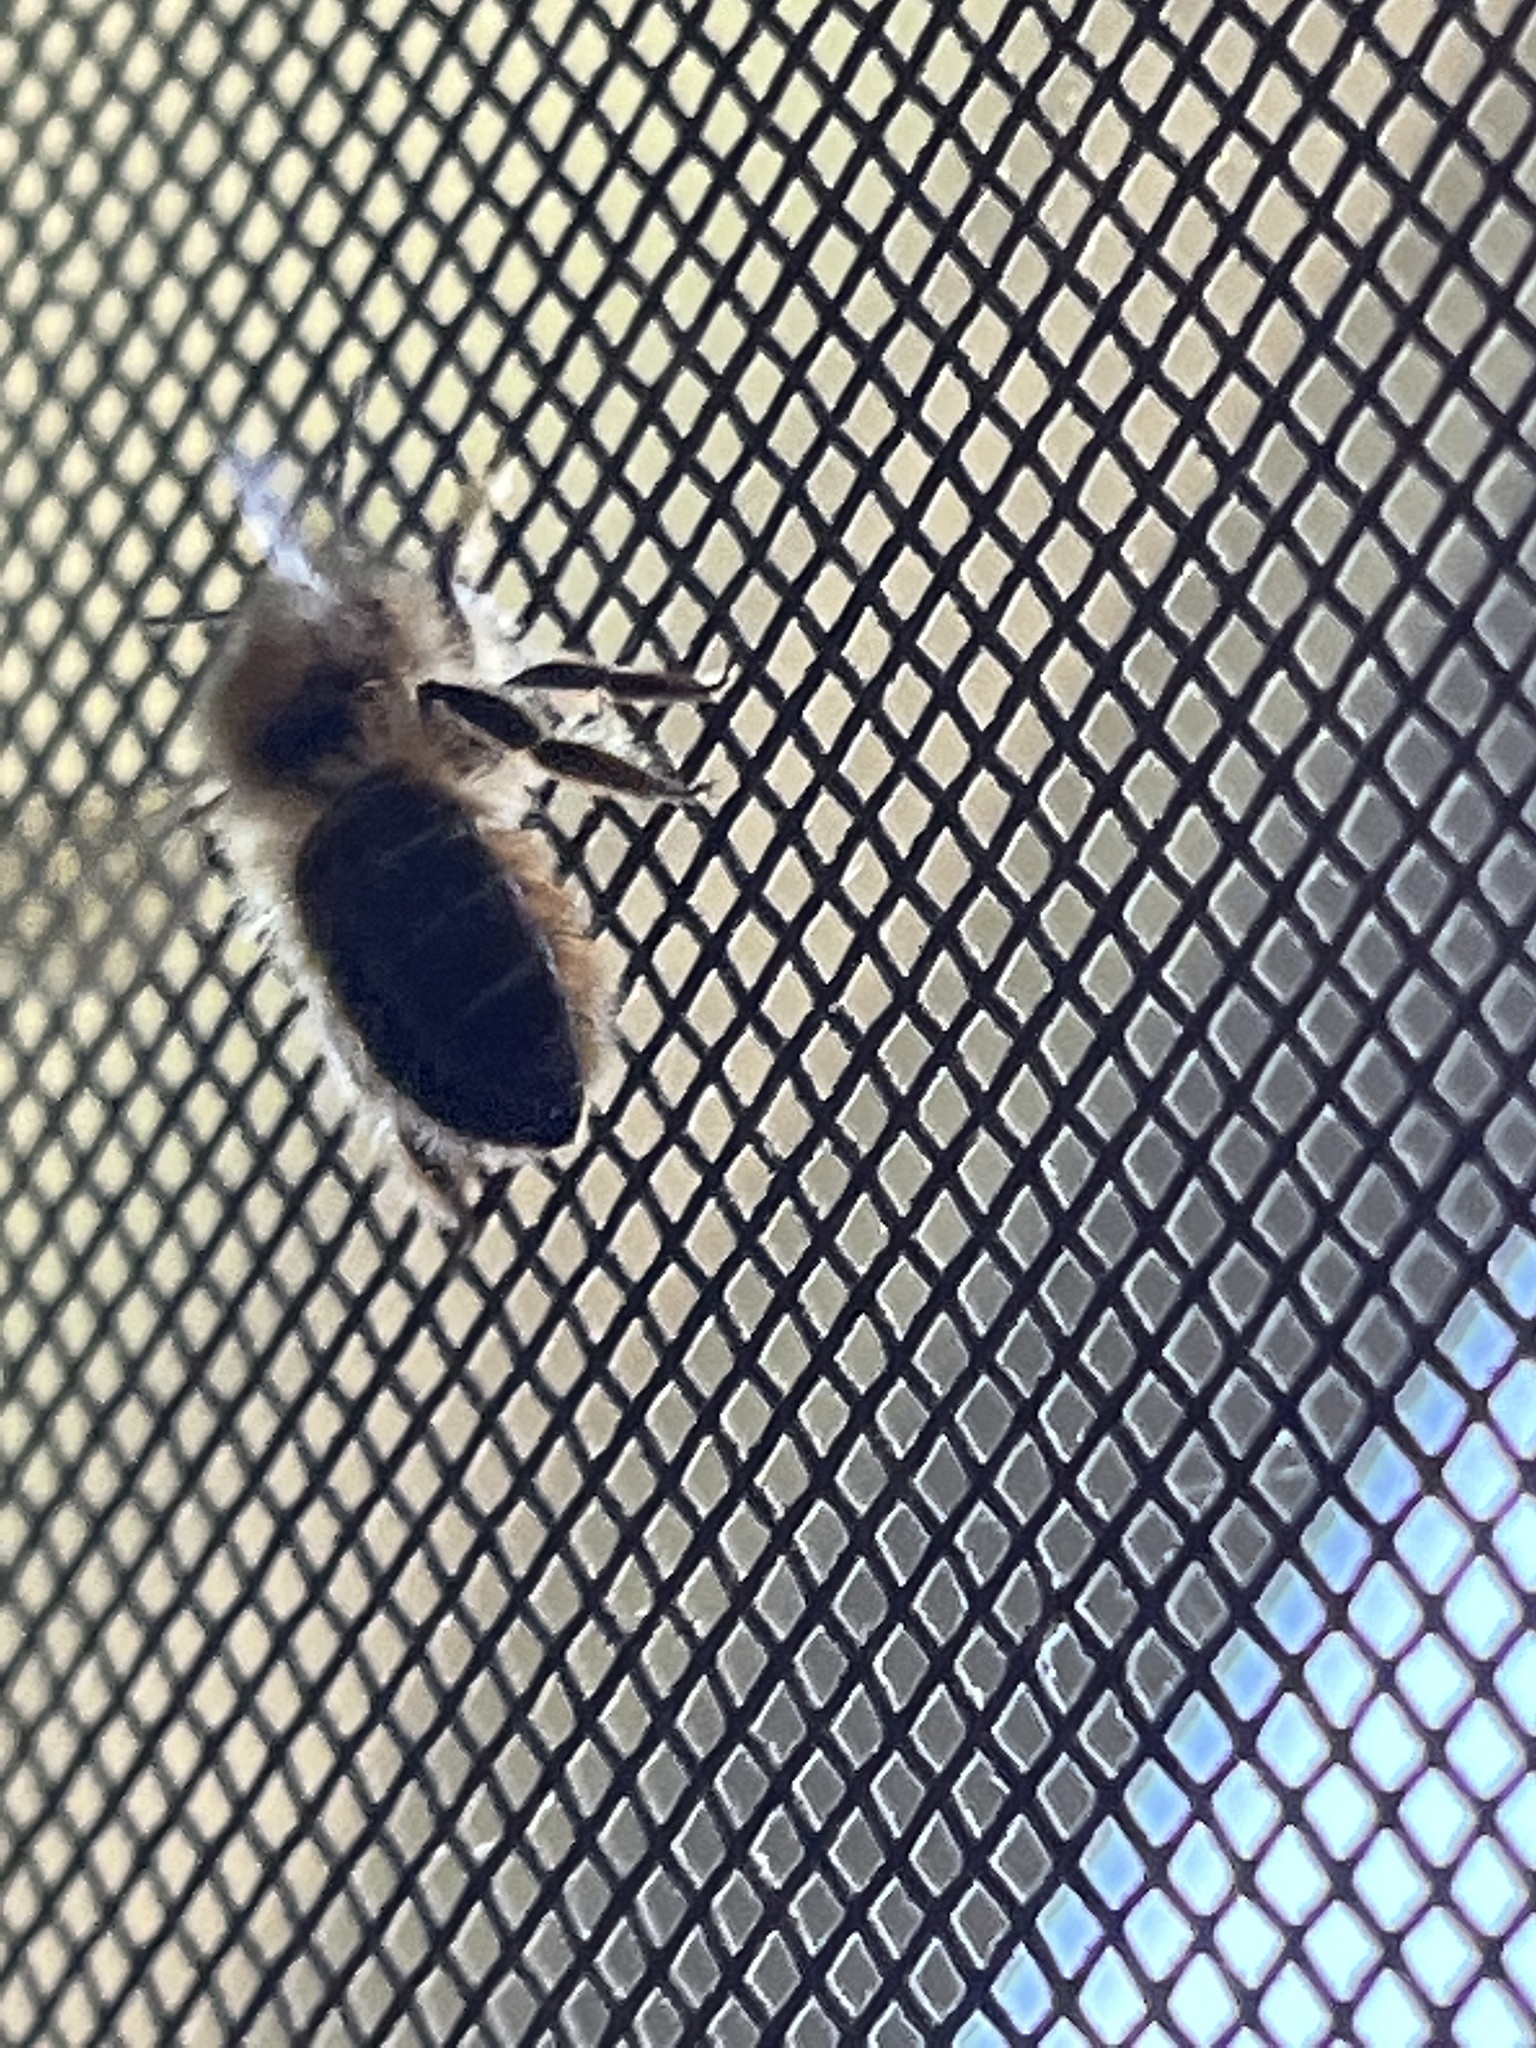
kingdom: Animalia
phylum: Arthropoda
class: Insecta
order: Hymenoptera
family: Apidae
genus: Apis
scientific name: Apis mellifera
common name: Honey bee
